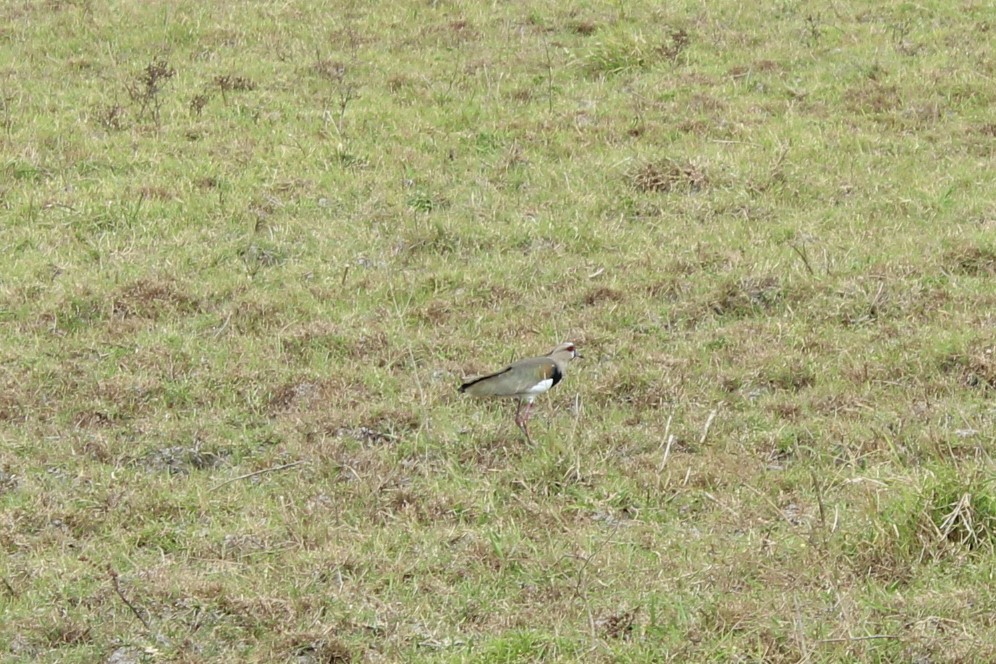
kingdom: Animalia
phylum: Chordata
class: Aves
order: Charadriiformes
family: Charadriidae
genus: Vanellus
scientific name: Vanellus chilensis
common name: Southern lapwing
